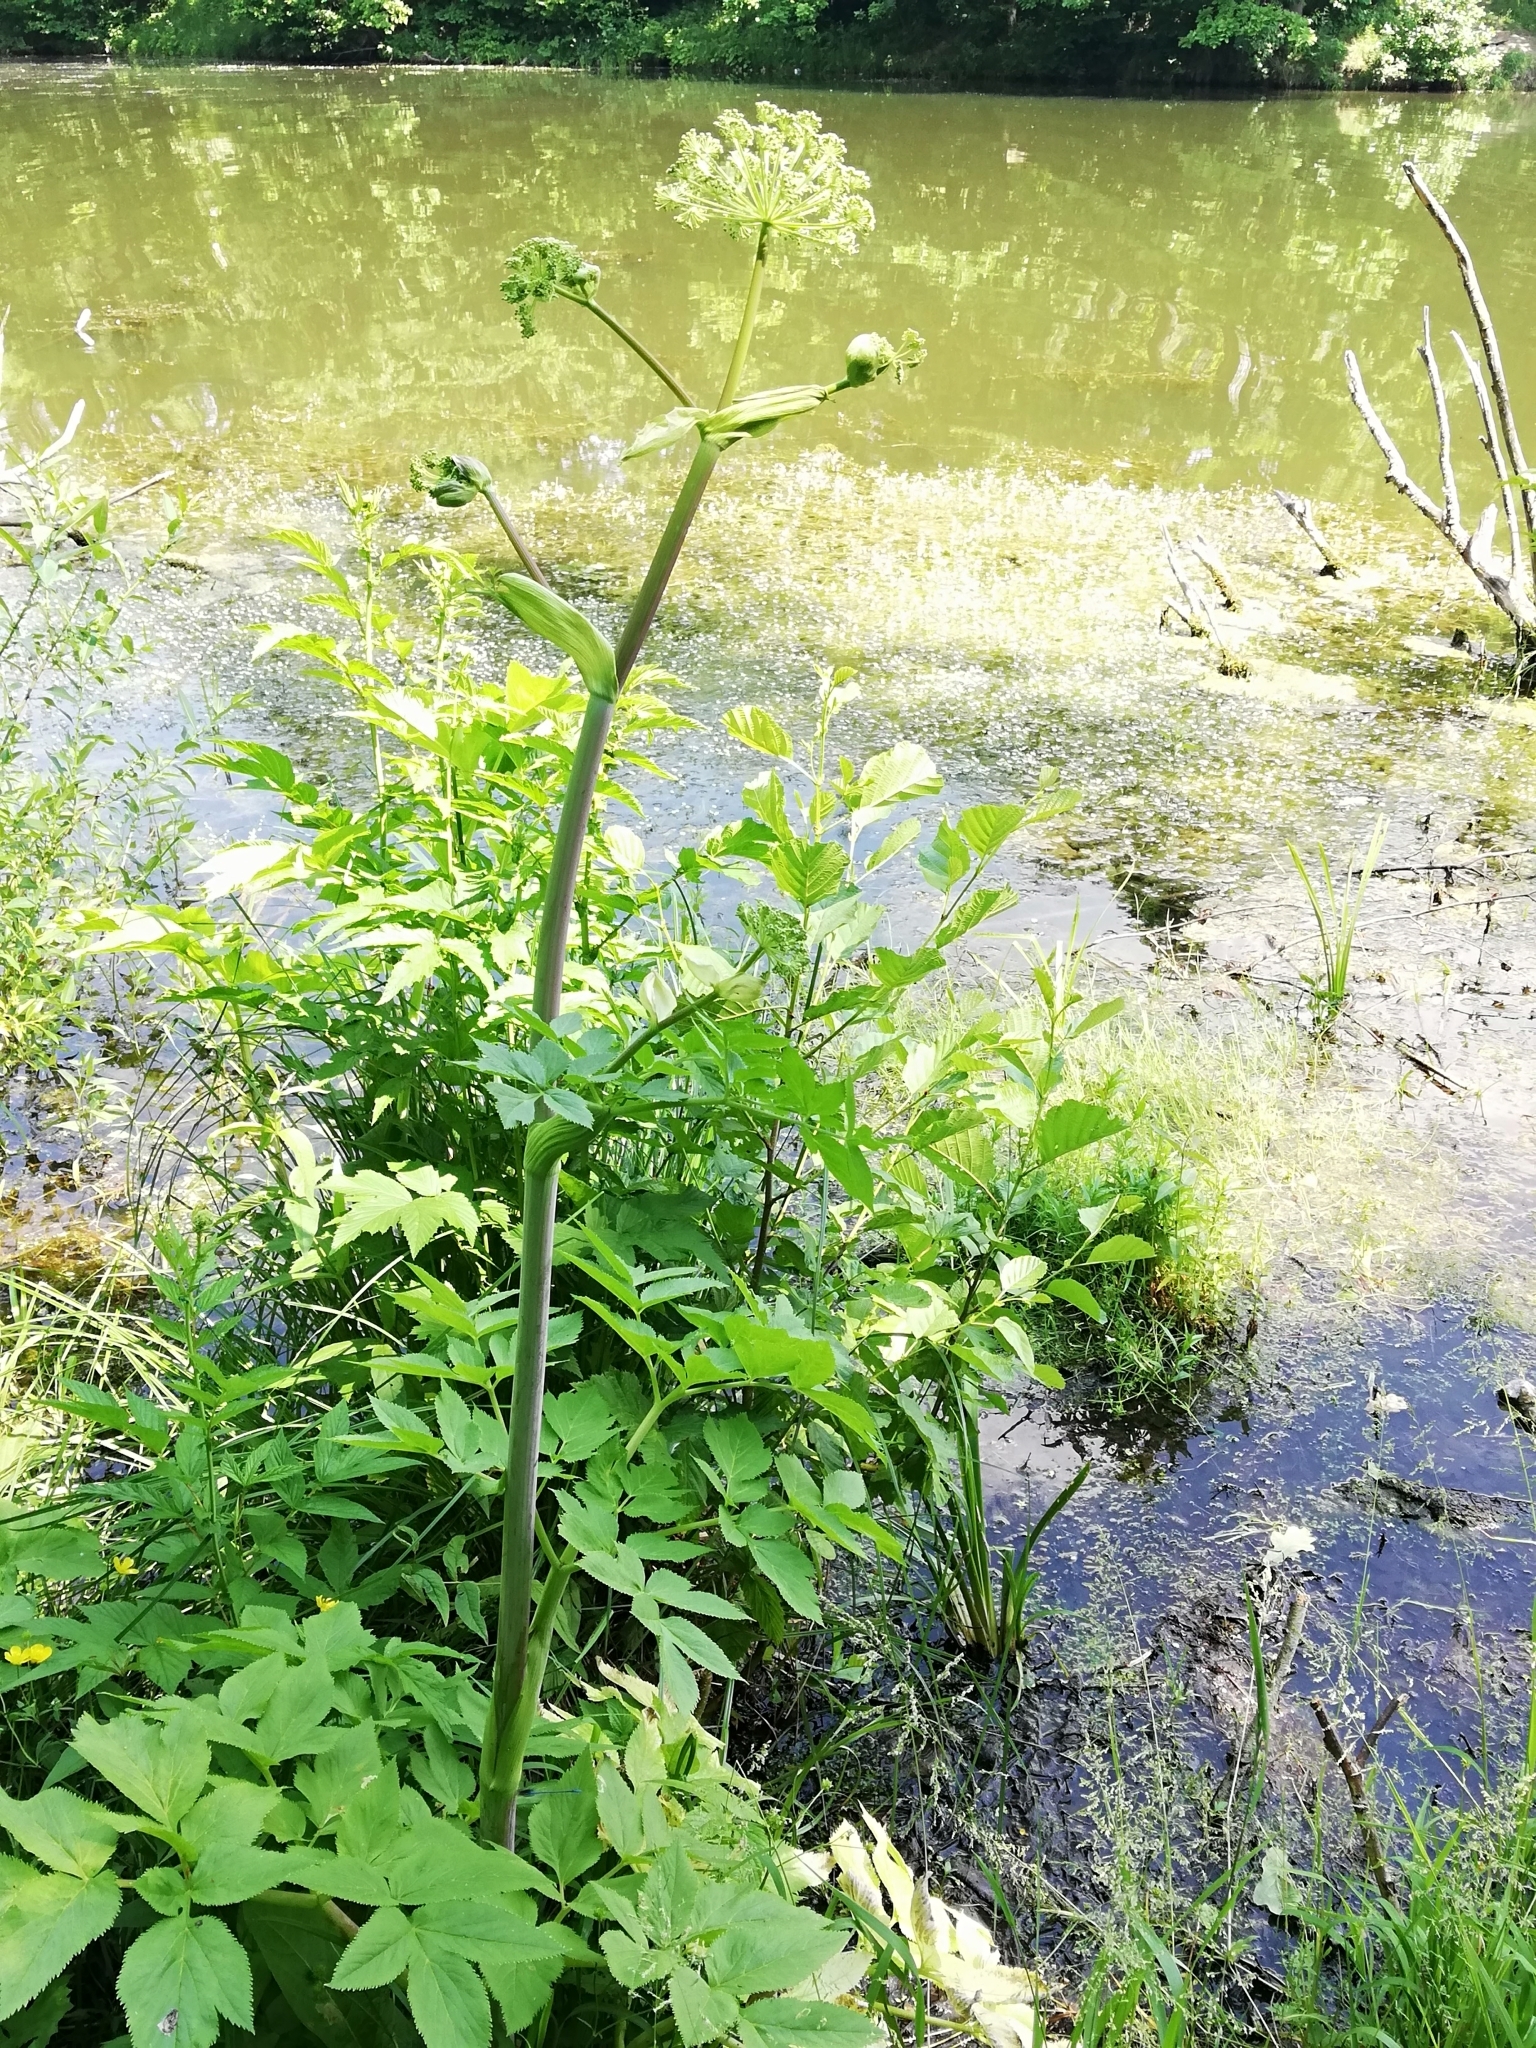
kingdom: Plantae
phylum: Tracheophyta
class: Magnoliopsida
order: Apiales
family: Apiaceae
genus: Angelica
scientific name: Angelica archangelica
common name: Garden angelica
